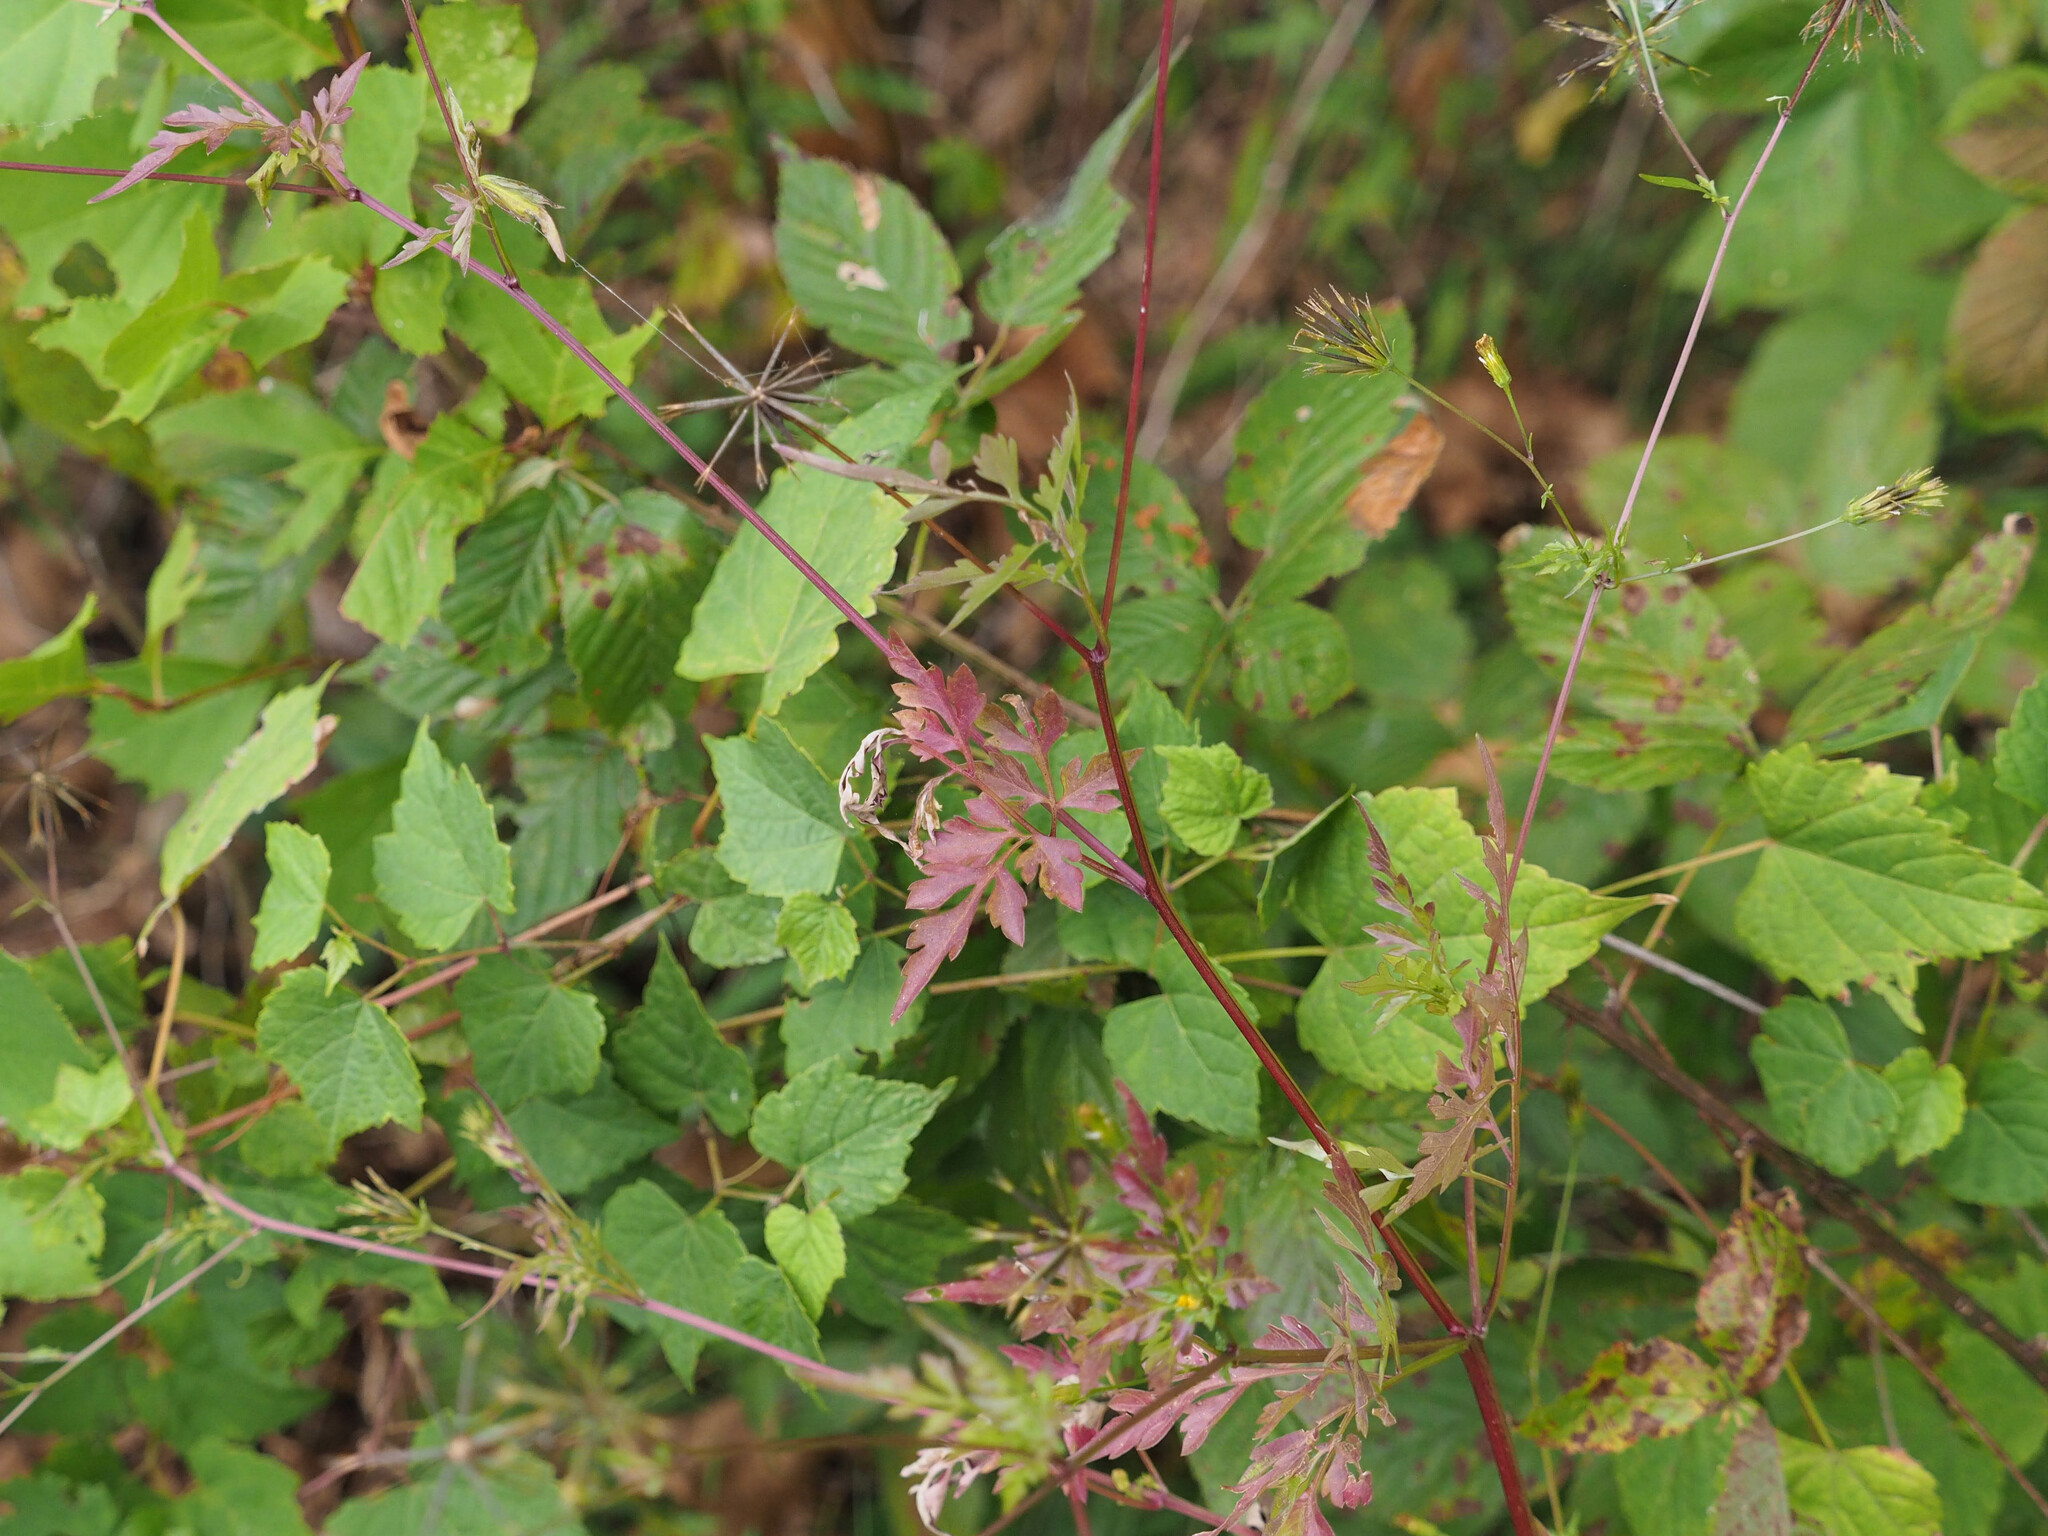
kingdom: Plantae
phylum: Tracheophyta
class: Magnoliopsida
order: Asterales
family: Asteraceae
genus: Bidens
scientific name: Bidens bipinnata
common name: Spanish-needles
